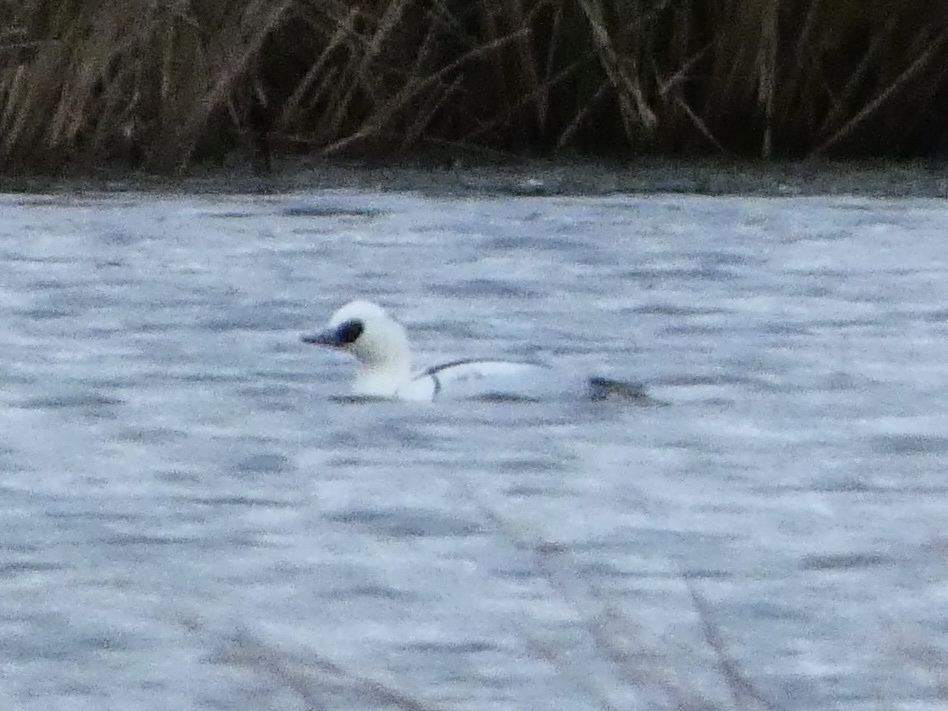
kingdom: Animalia
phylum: Chordata
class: Aves
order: Anseriformes
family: Anatidae
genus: Mergellus
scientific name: Mergellus albellus
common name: Smew
